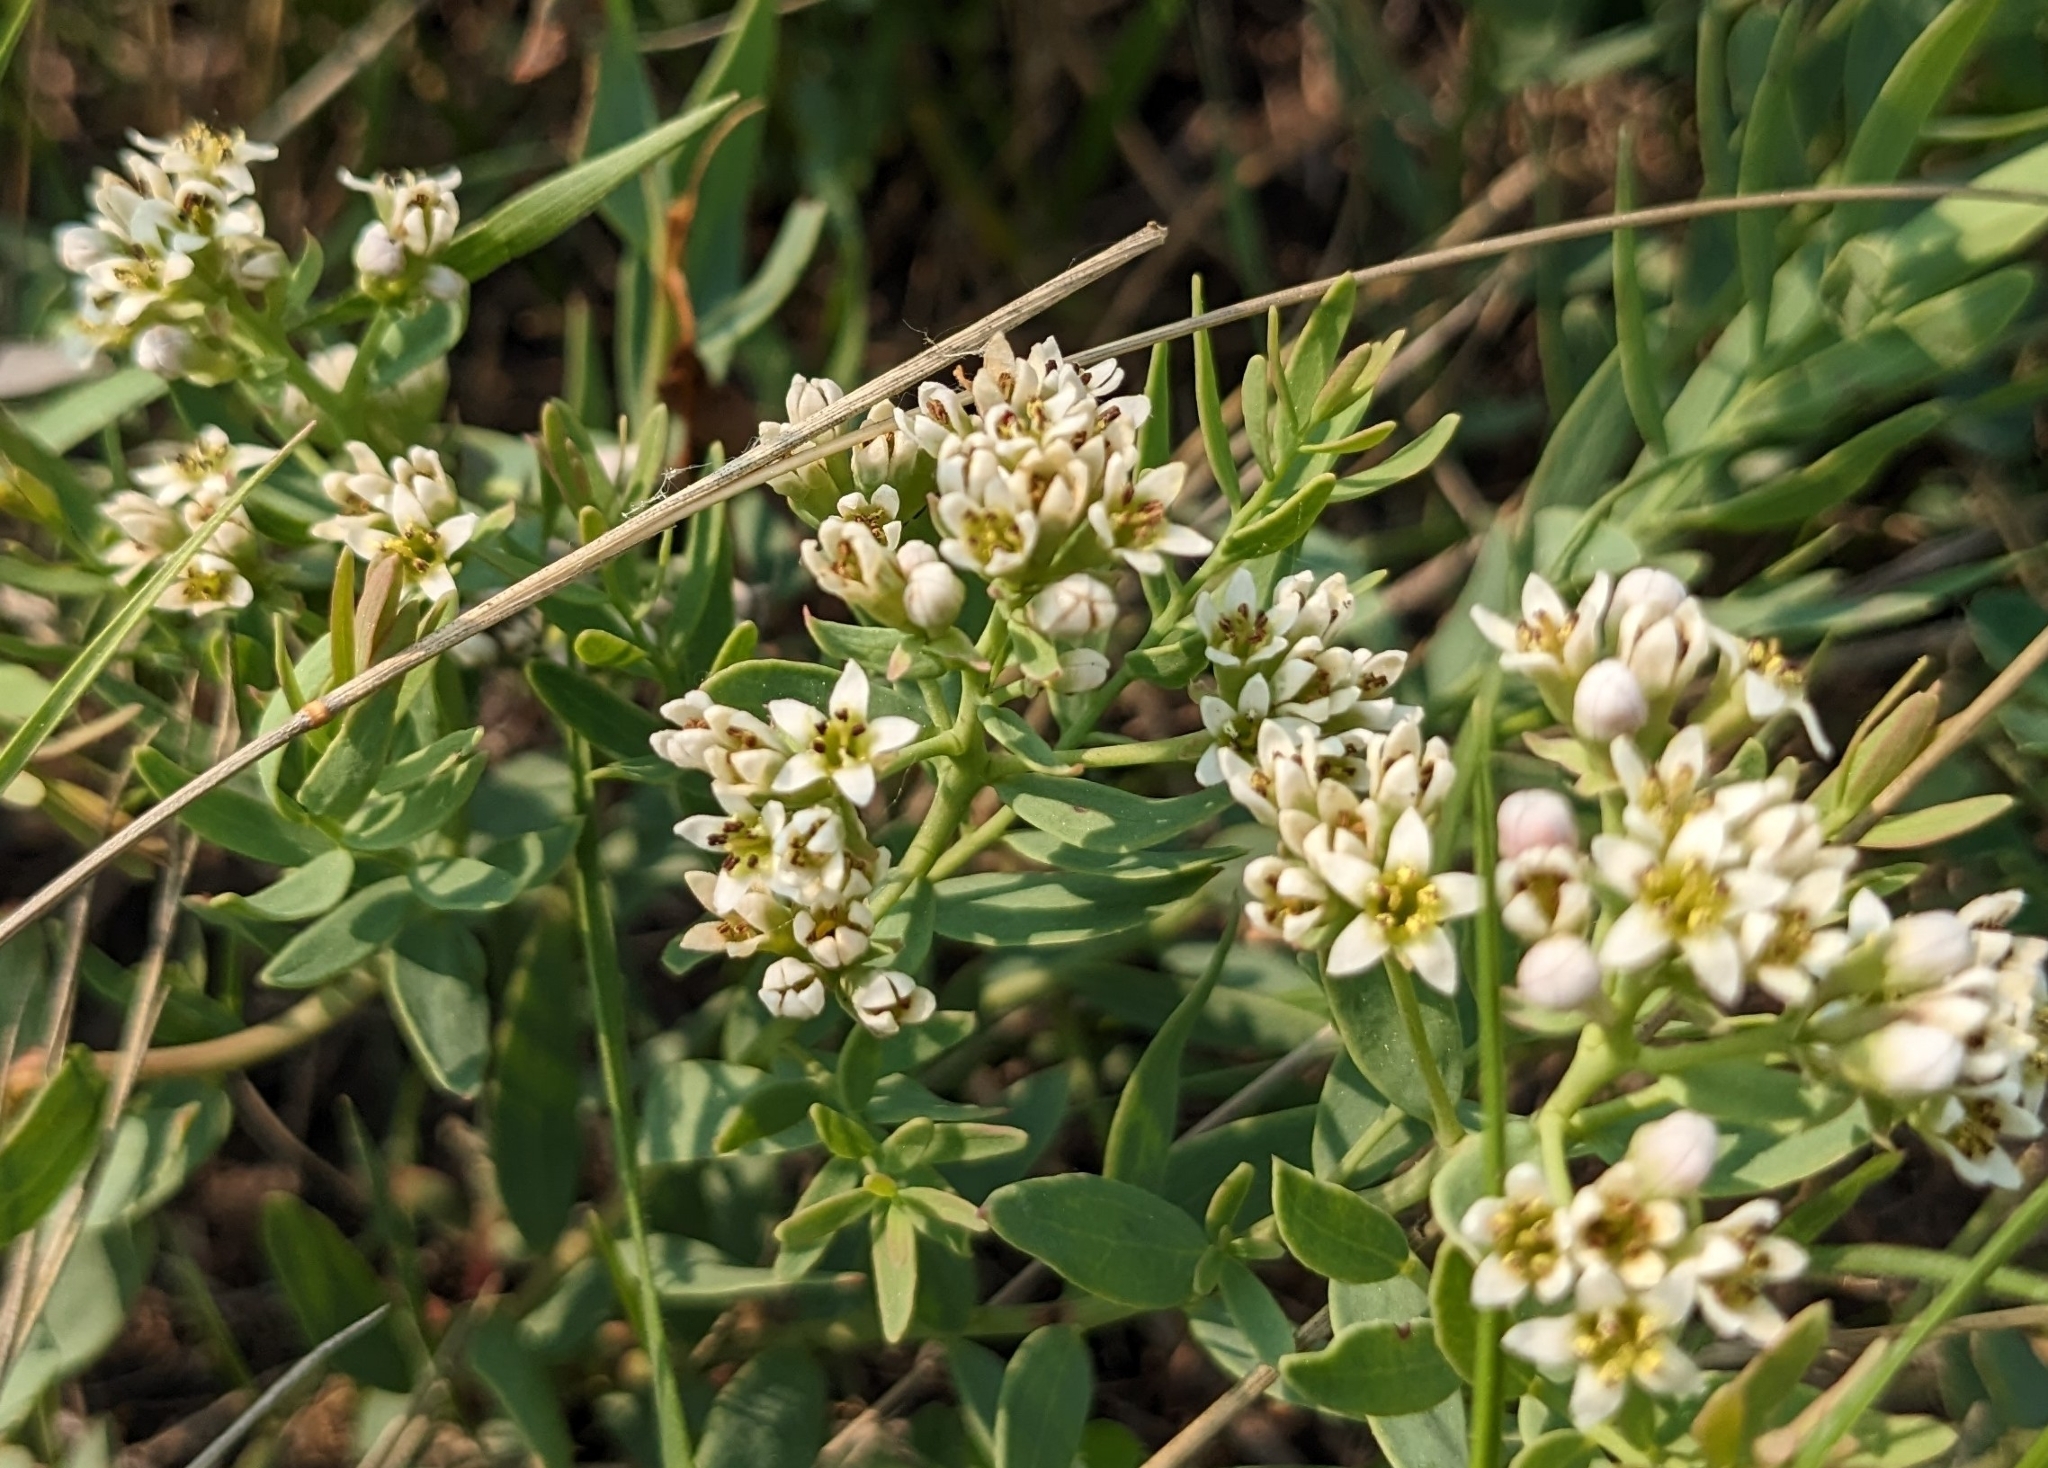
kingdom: Plantae
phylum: Tracheophyta
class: Magnoliopsida
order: Santalales
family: Comandraceae
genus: Comandra
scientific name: Comandra umbellata
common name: Bastard toadflax
